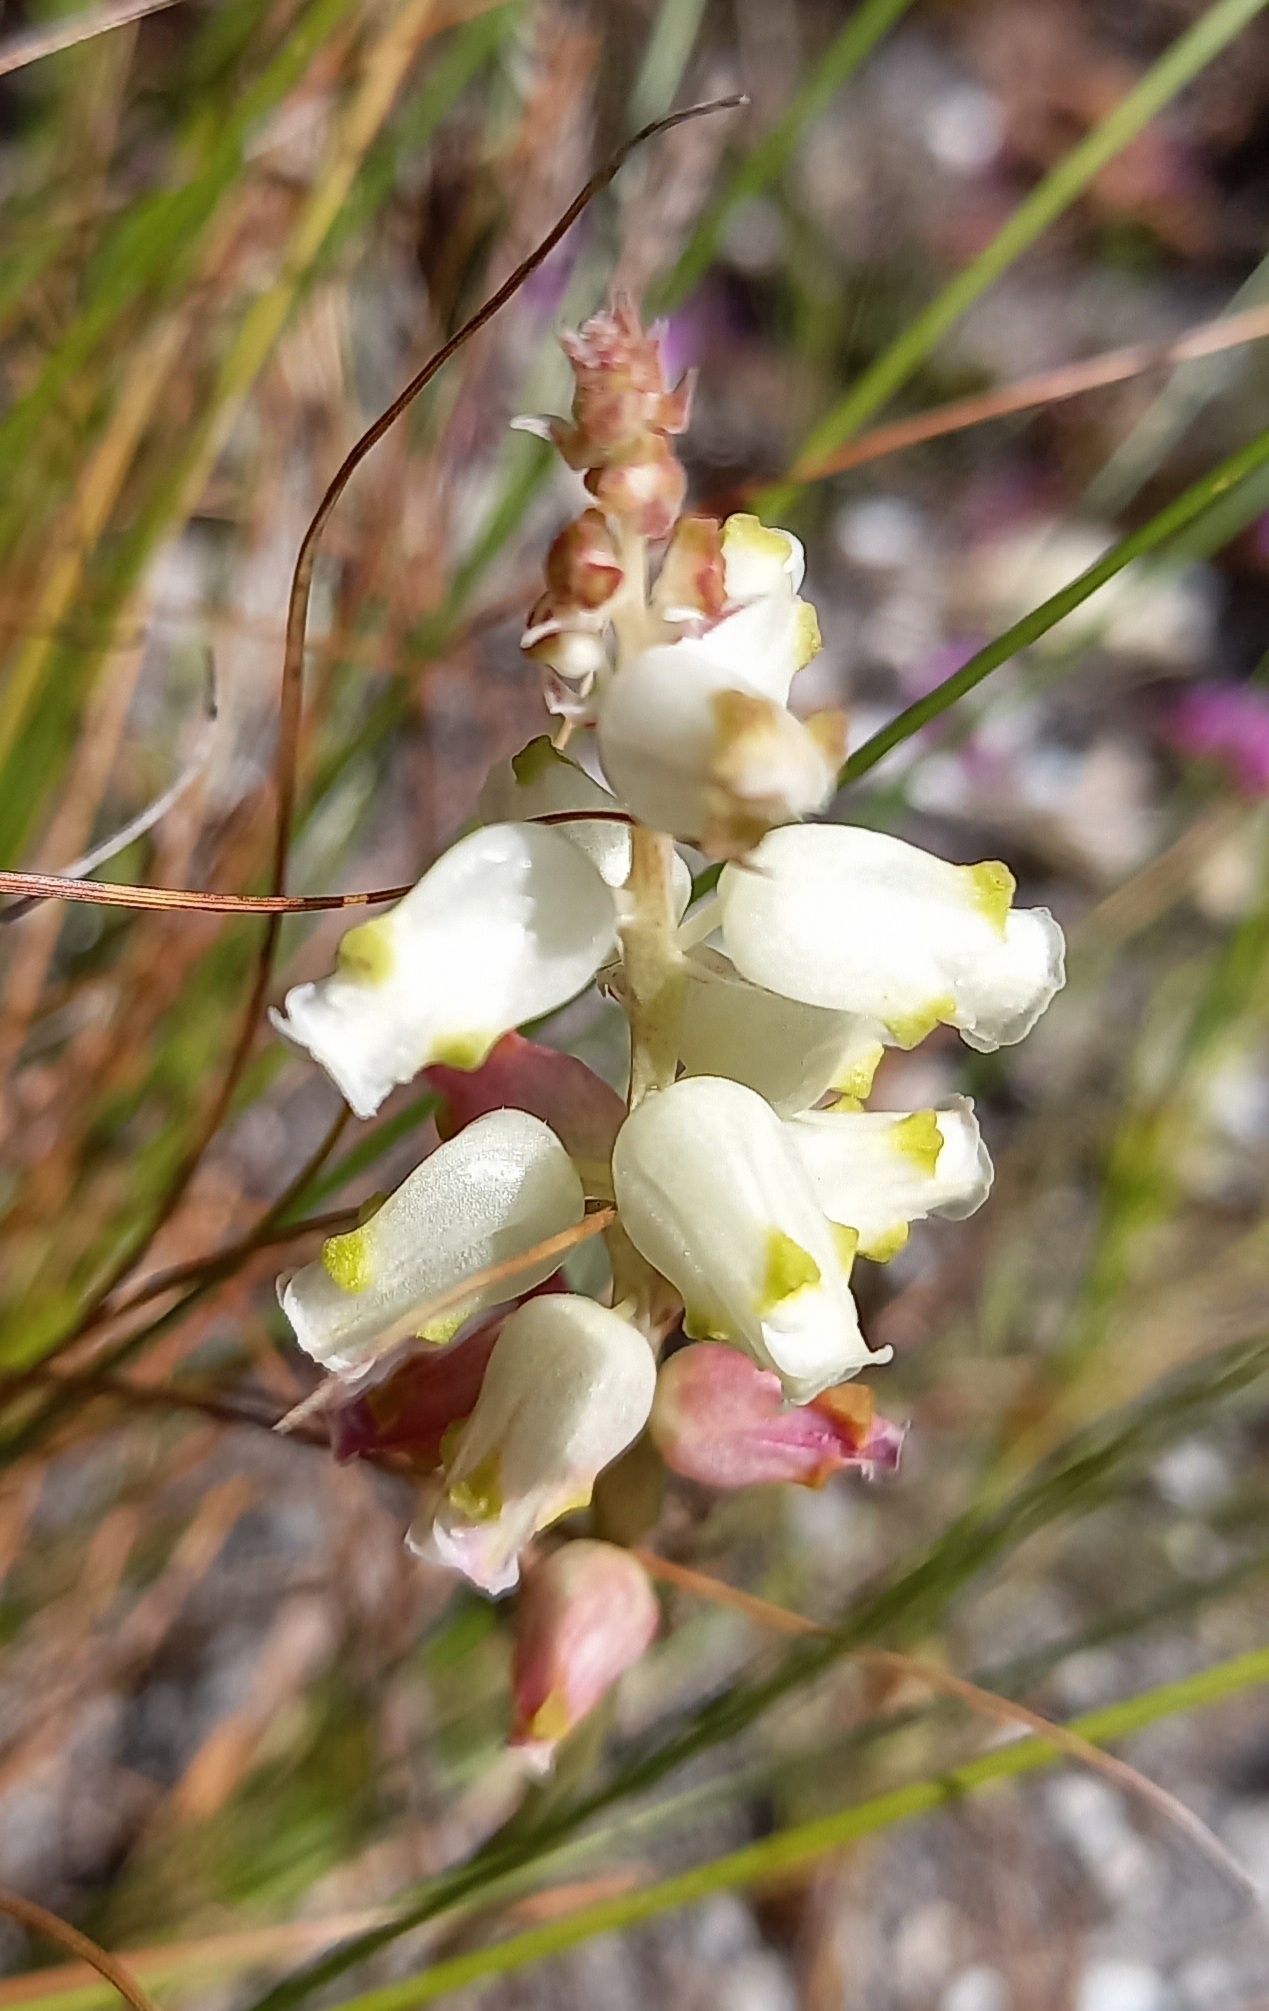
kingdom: Plantae
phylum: Tracheophyta
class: Liliopsida
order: Asparagales
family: Asparagaceae
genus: Lachenalia
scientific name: Lachenalia peersii
